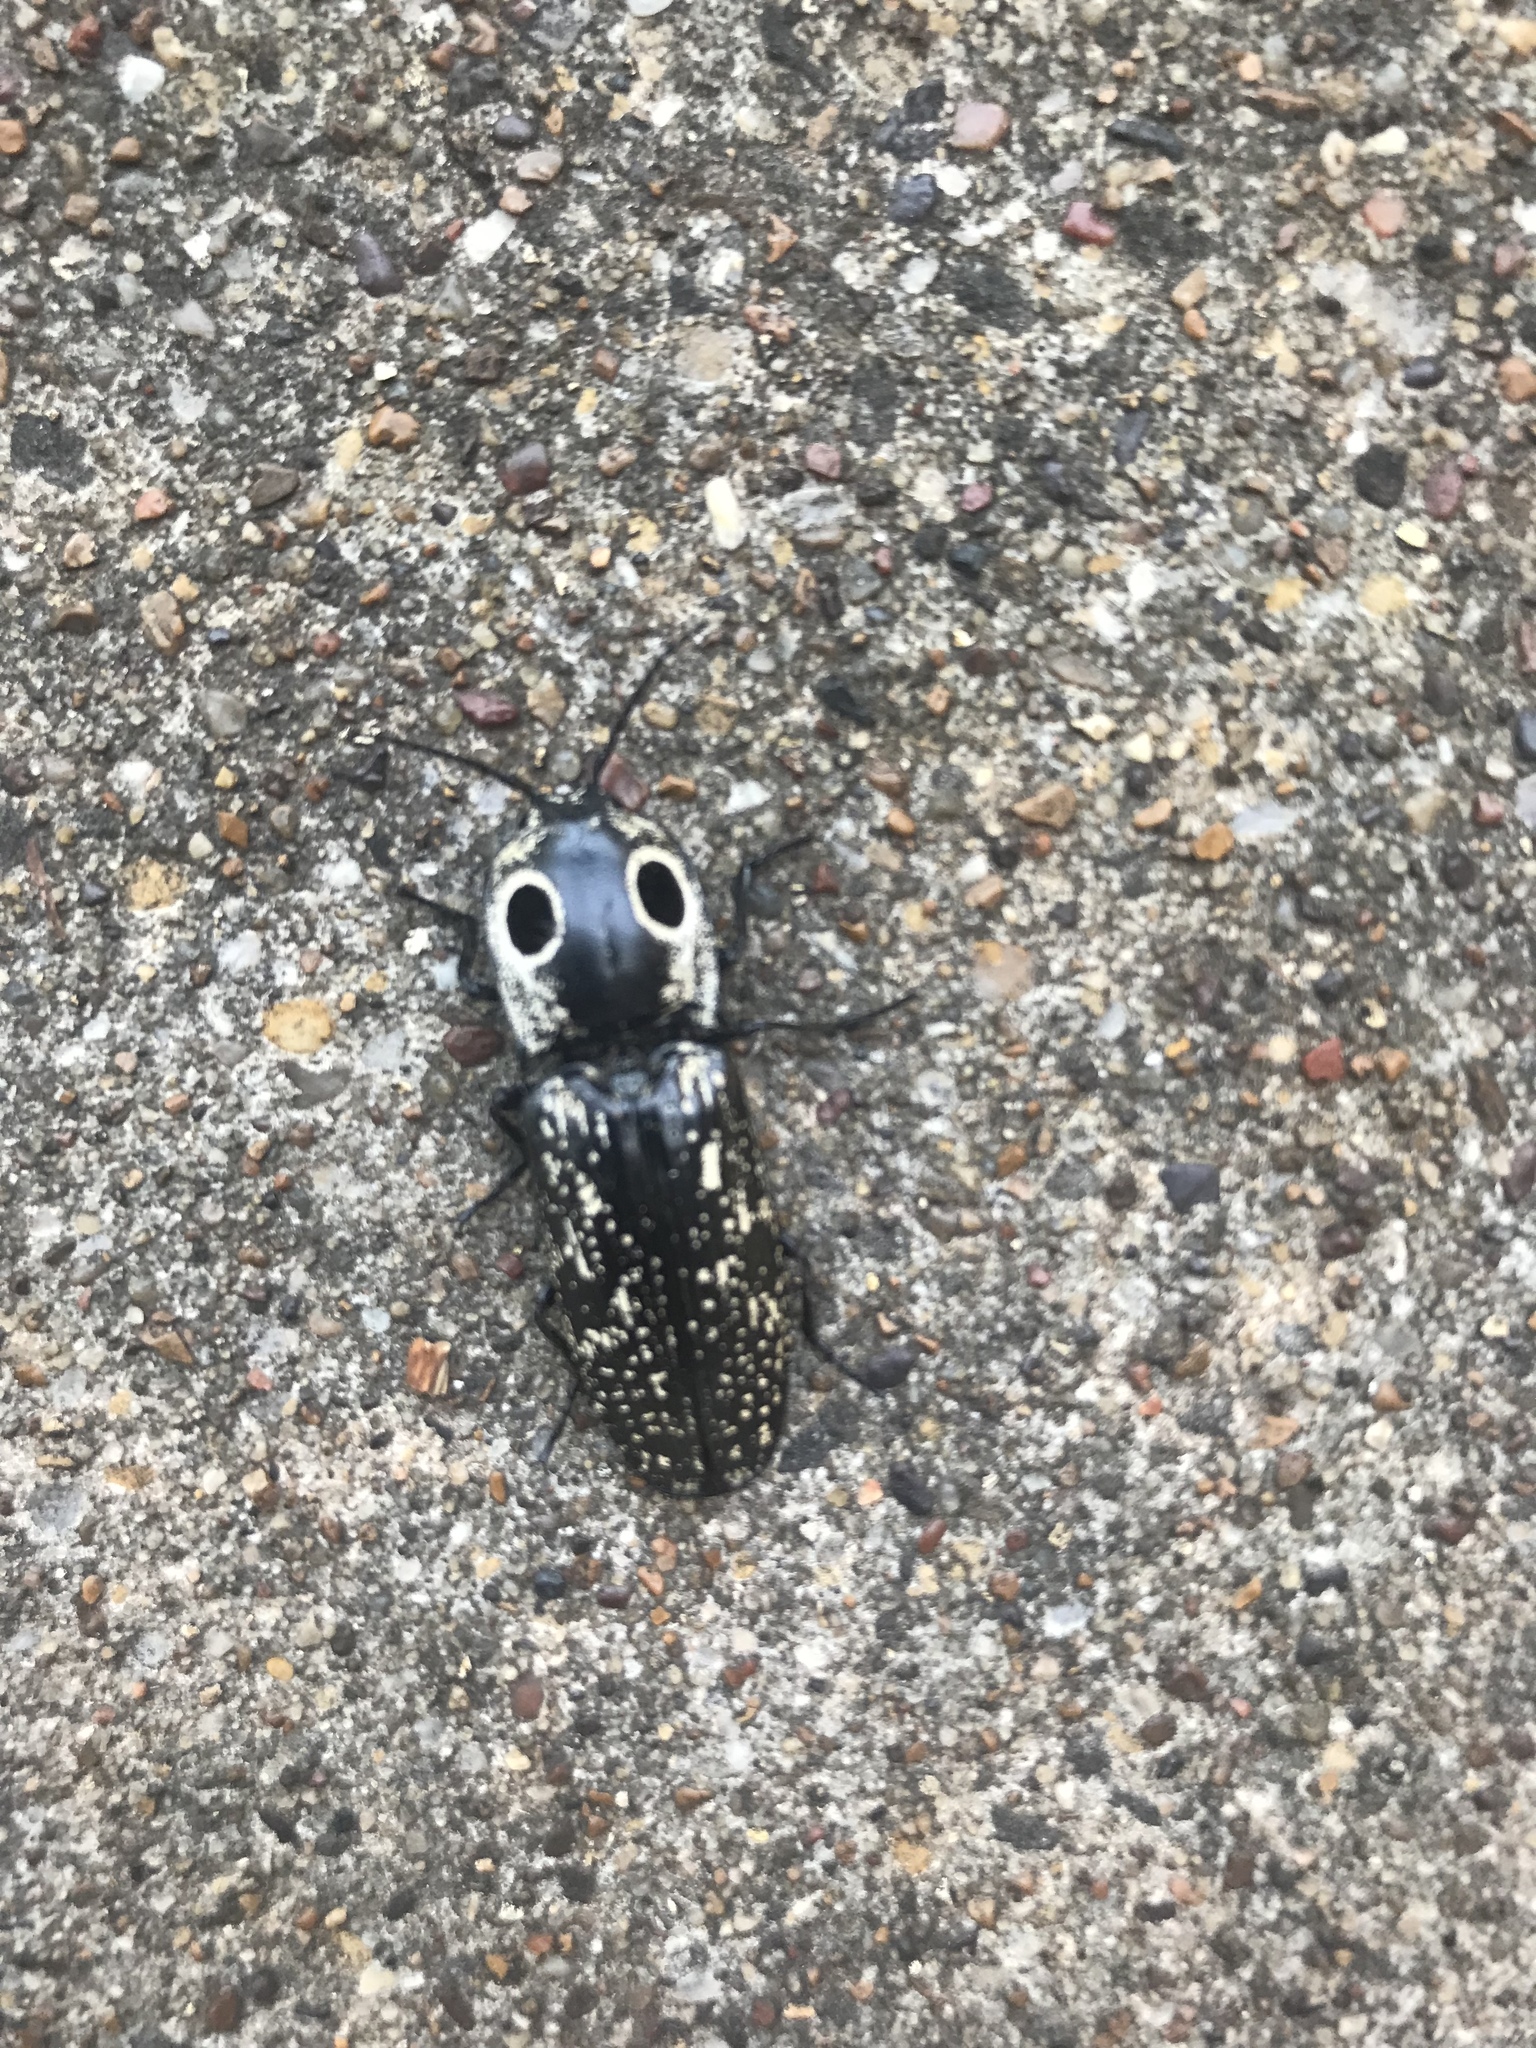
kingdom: Animalia
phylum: Arthropoda
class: Insecta
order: Coleoptera
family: Elateridae
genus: Alaus
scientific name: Alaus oculatus
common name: Eastern eyed click beetle
